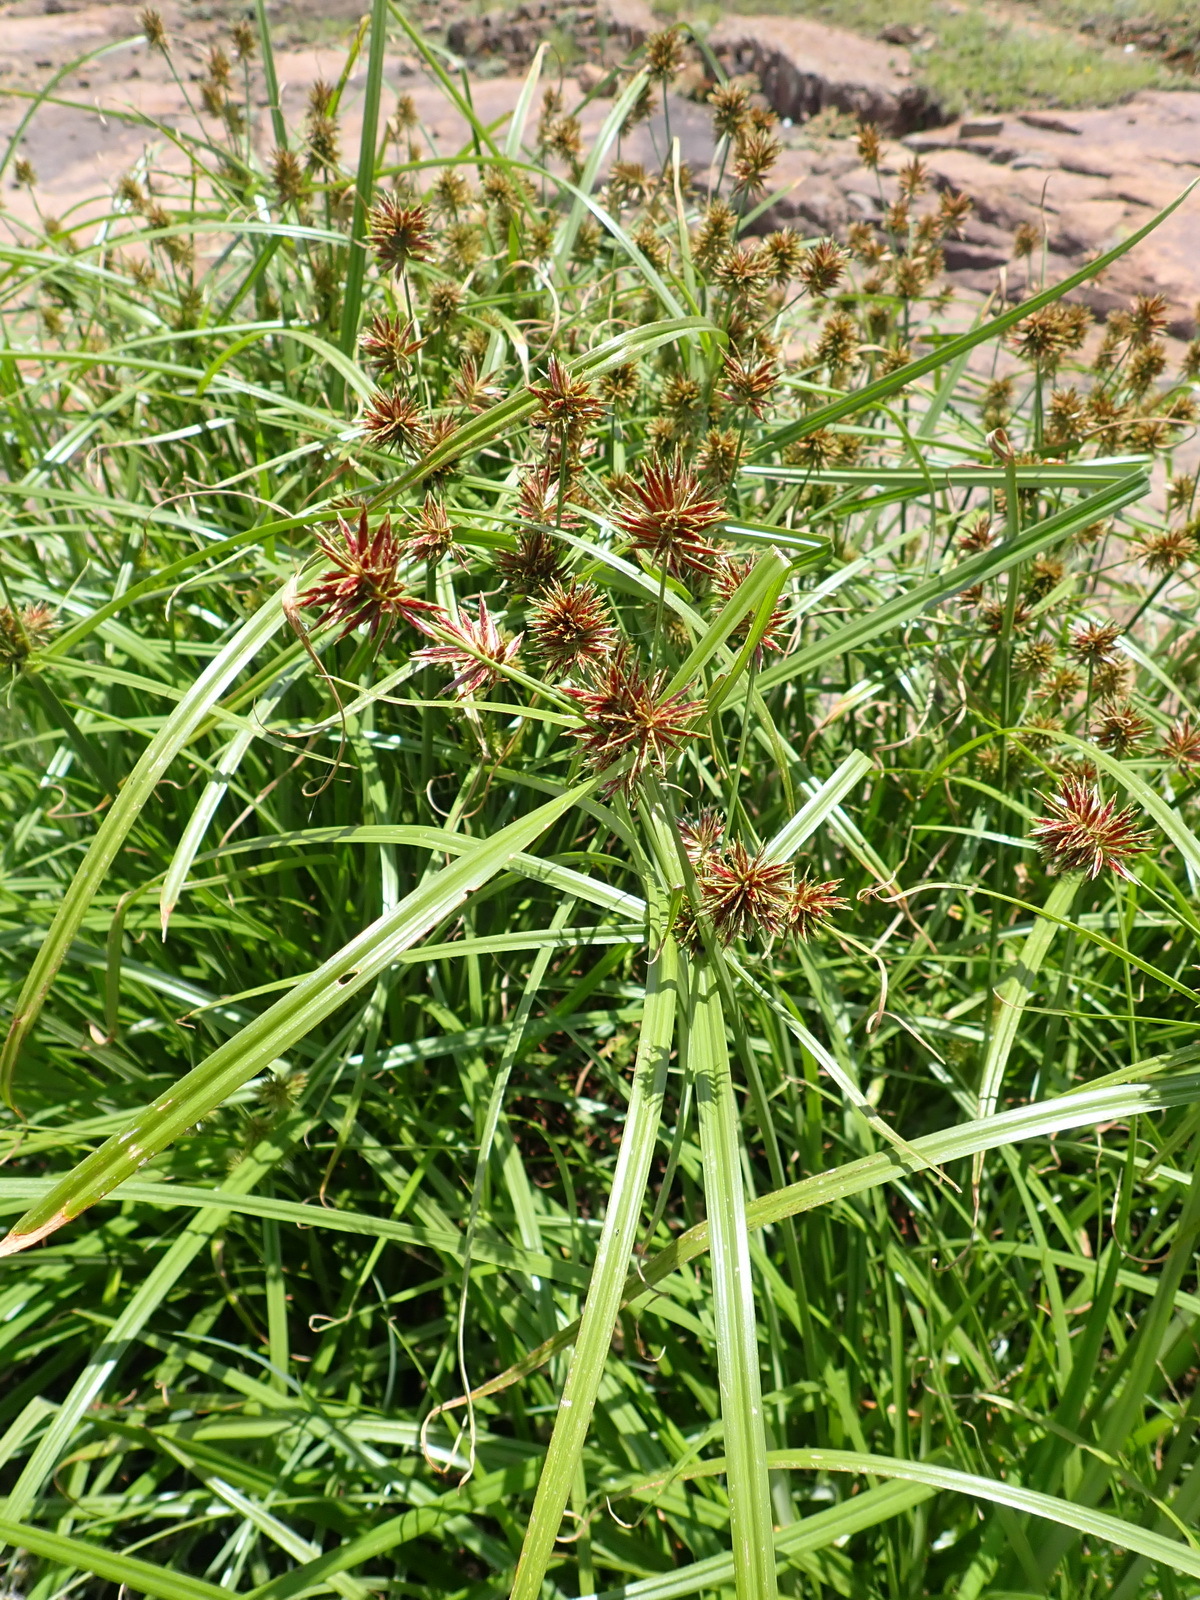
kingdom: Plantae
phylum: Tracheophyta
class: Liliopsida
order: Poales
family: Cyperaceae
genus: Cyperus
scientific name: Cyperus congestus
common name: Dense flat sedge
